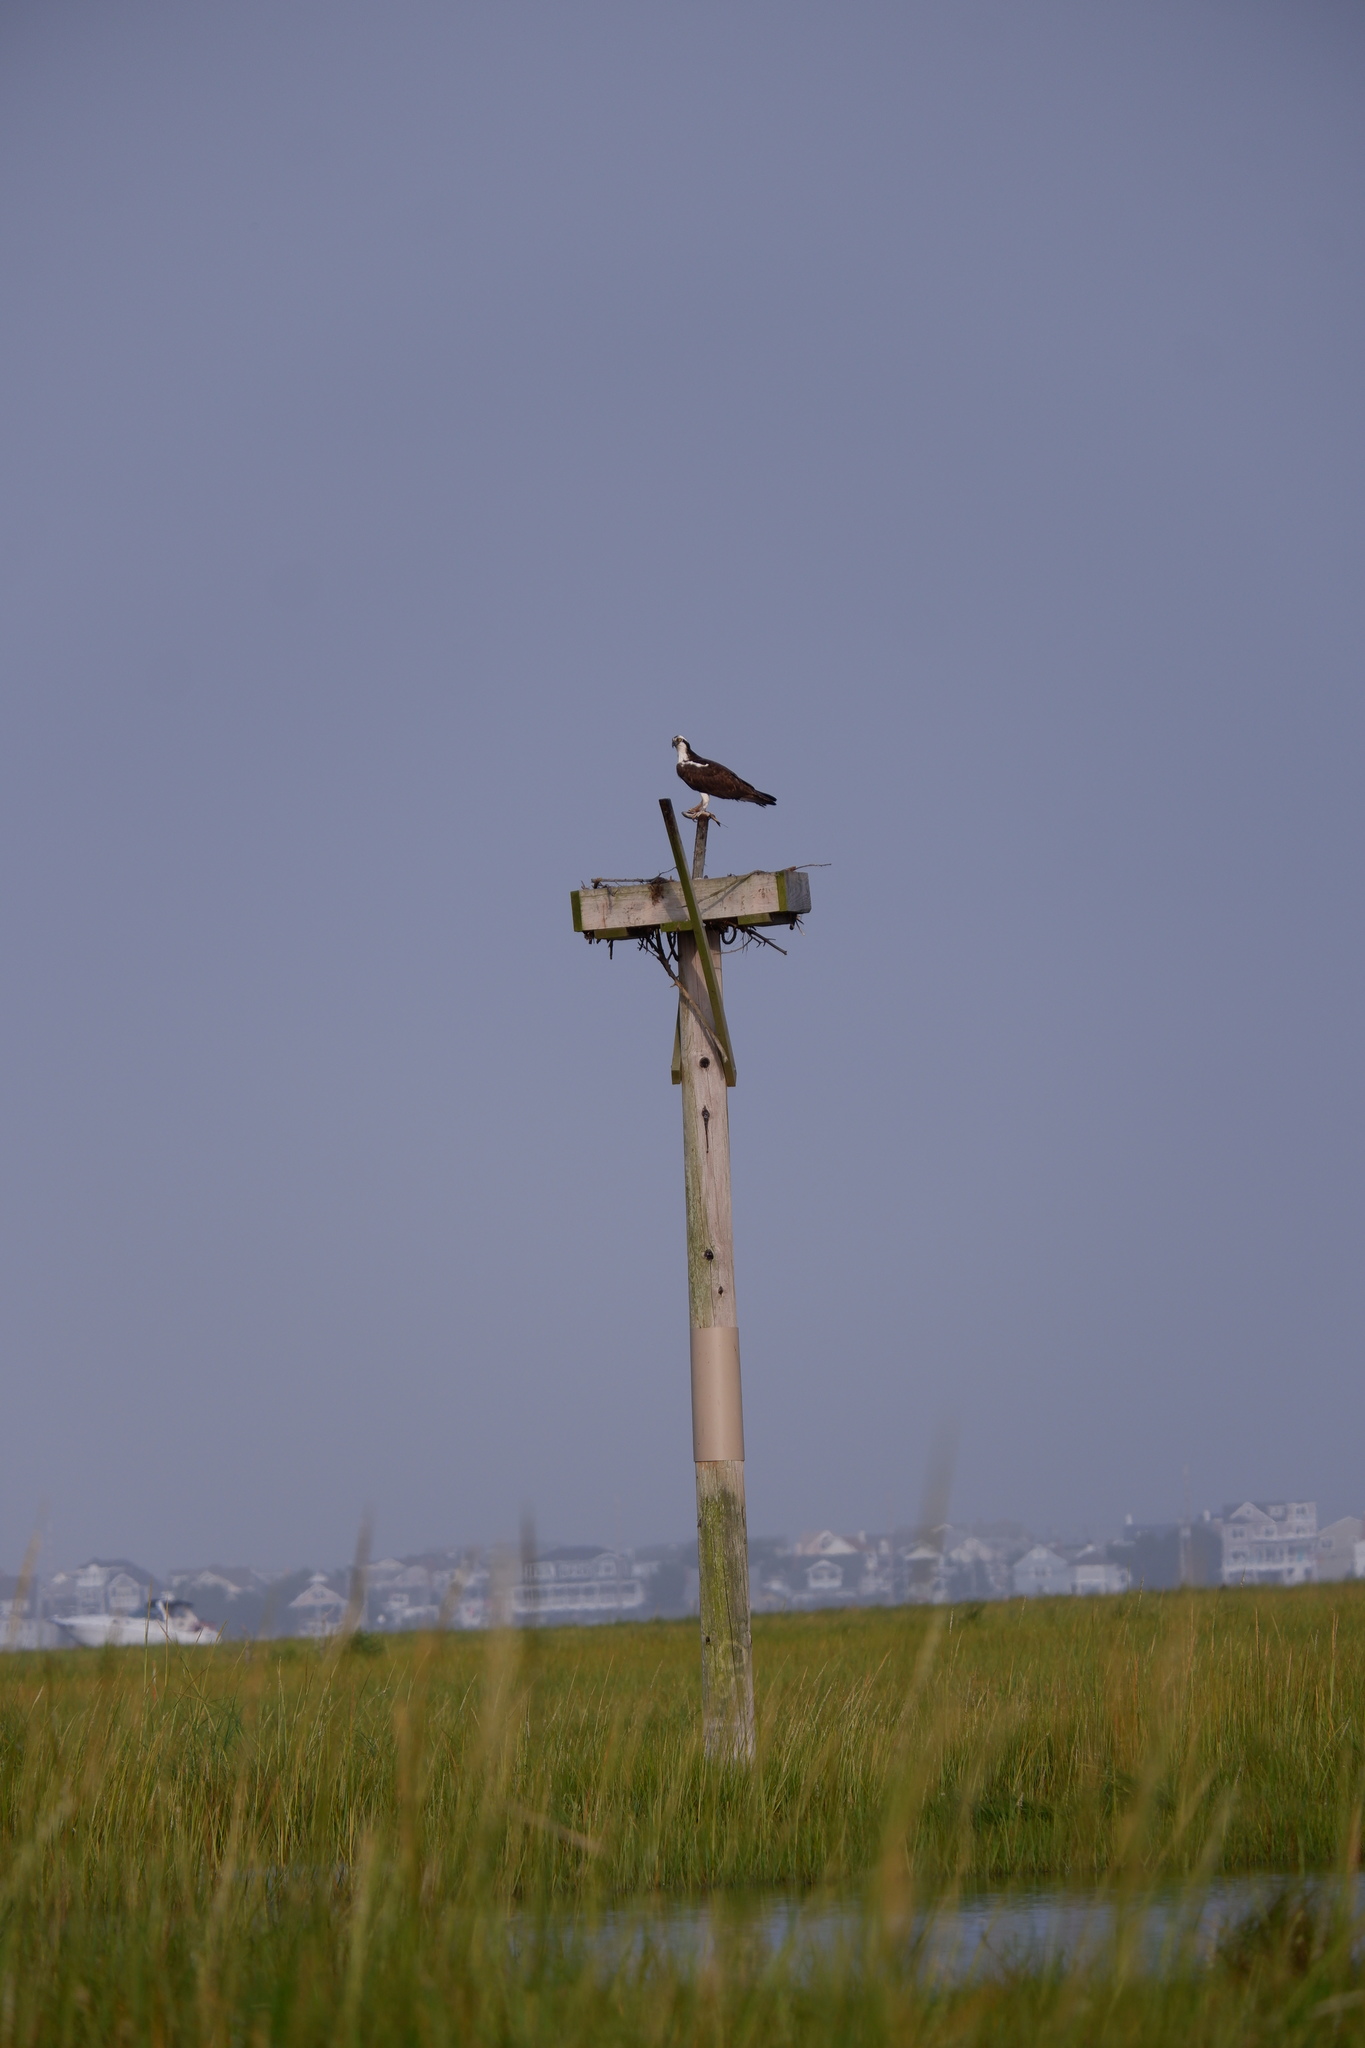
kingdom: Animalia
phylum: Chordata
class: Aves
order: Accipitriformes
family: Pandionidae
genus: Pandion
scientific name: Pandion haliaetus
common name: Osprey
